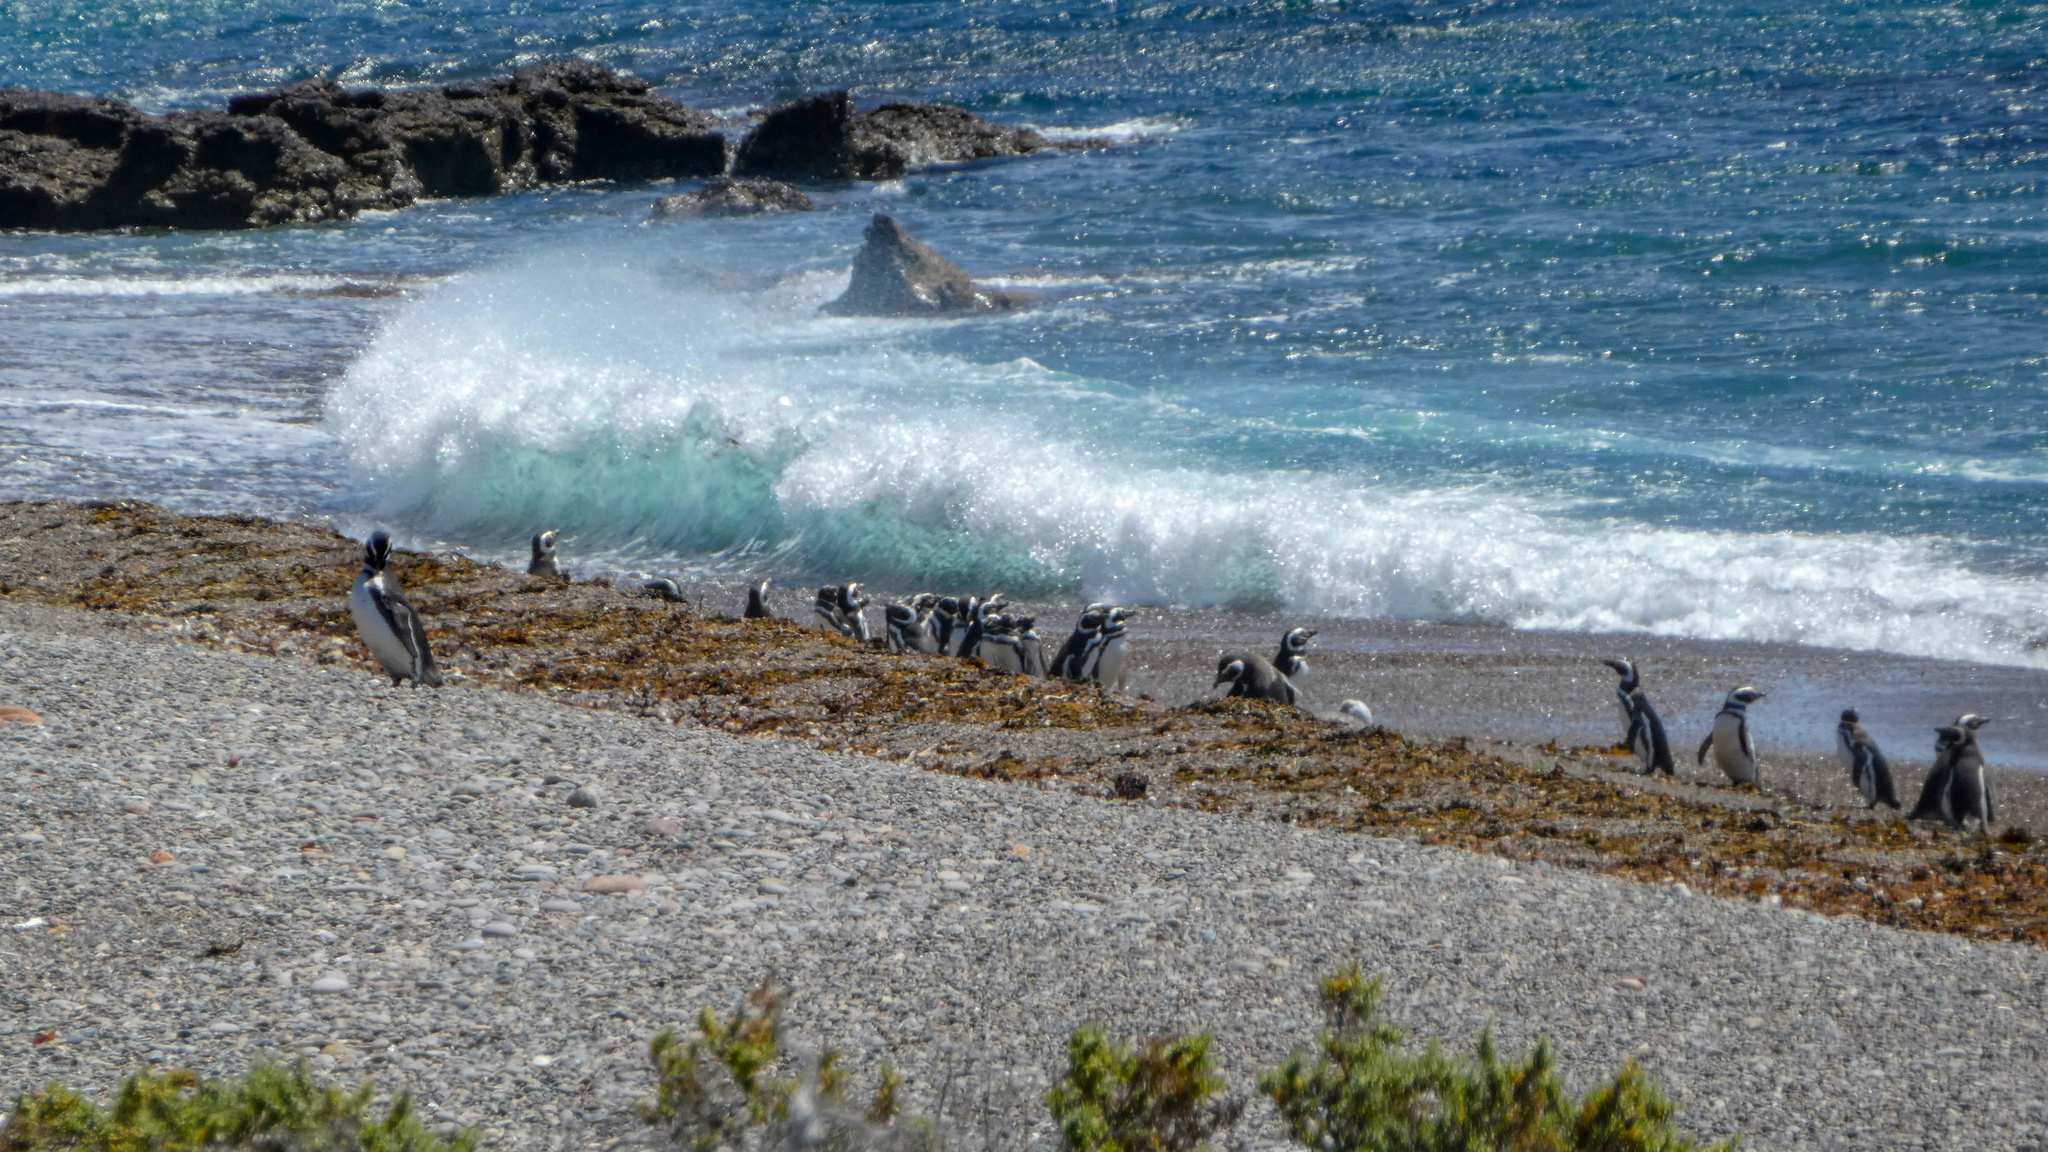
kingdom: Animalia
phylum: Chordata
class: Aves
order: Sphenisciformes
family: Spheniscidae
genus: Spheniscus
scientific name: Spheniscus magellanicus
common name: Magellanic penguin
